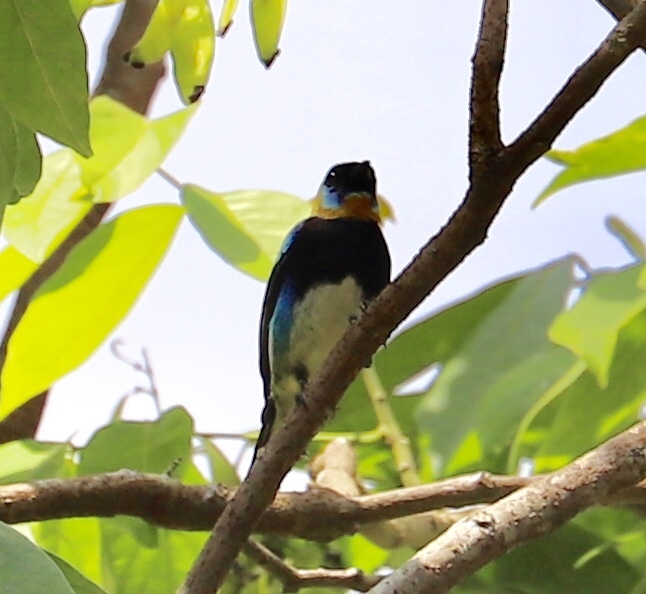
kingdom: Animalia
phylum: Chordata
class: Aves
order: Passeriformes
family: Thraupidae
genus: Stilpnia
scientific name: Stilpnia larvata
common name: Golden-hooded tanager
